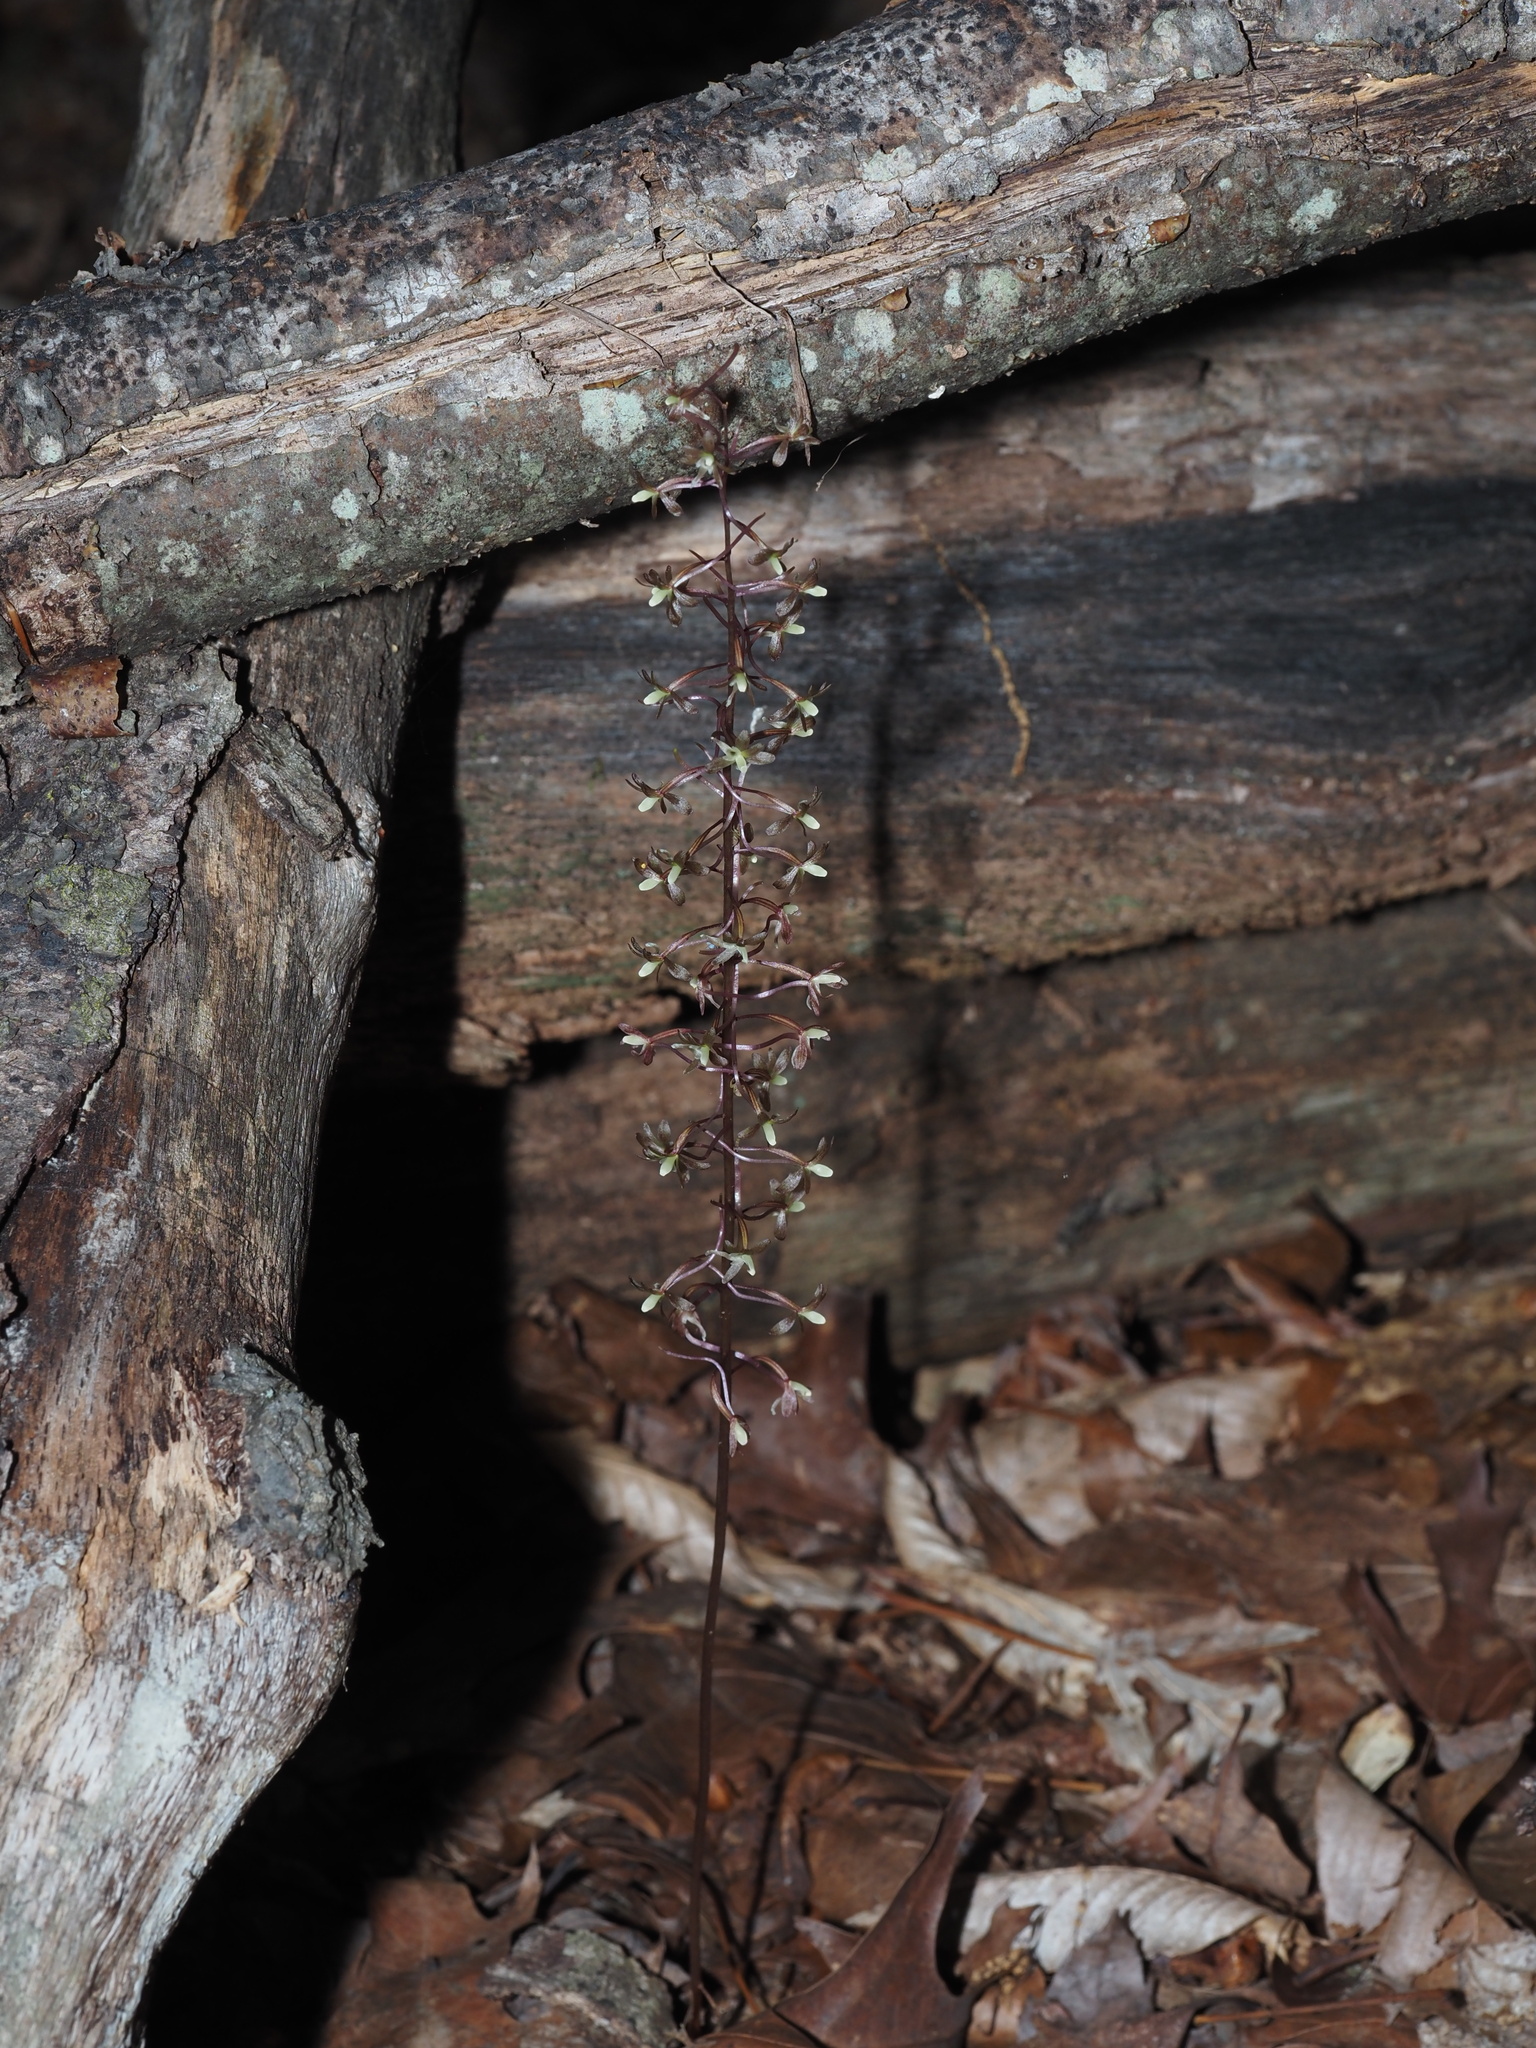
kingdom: Plantae
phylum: Tracheophyta
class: Liliopsida
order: Asparagales
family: Orchidaceae
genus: Tipularia
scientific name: Tipularia discolor
